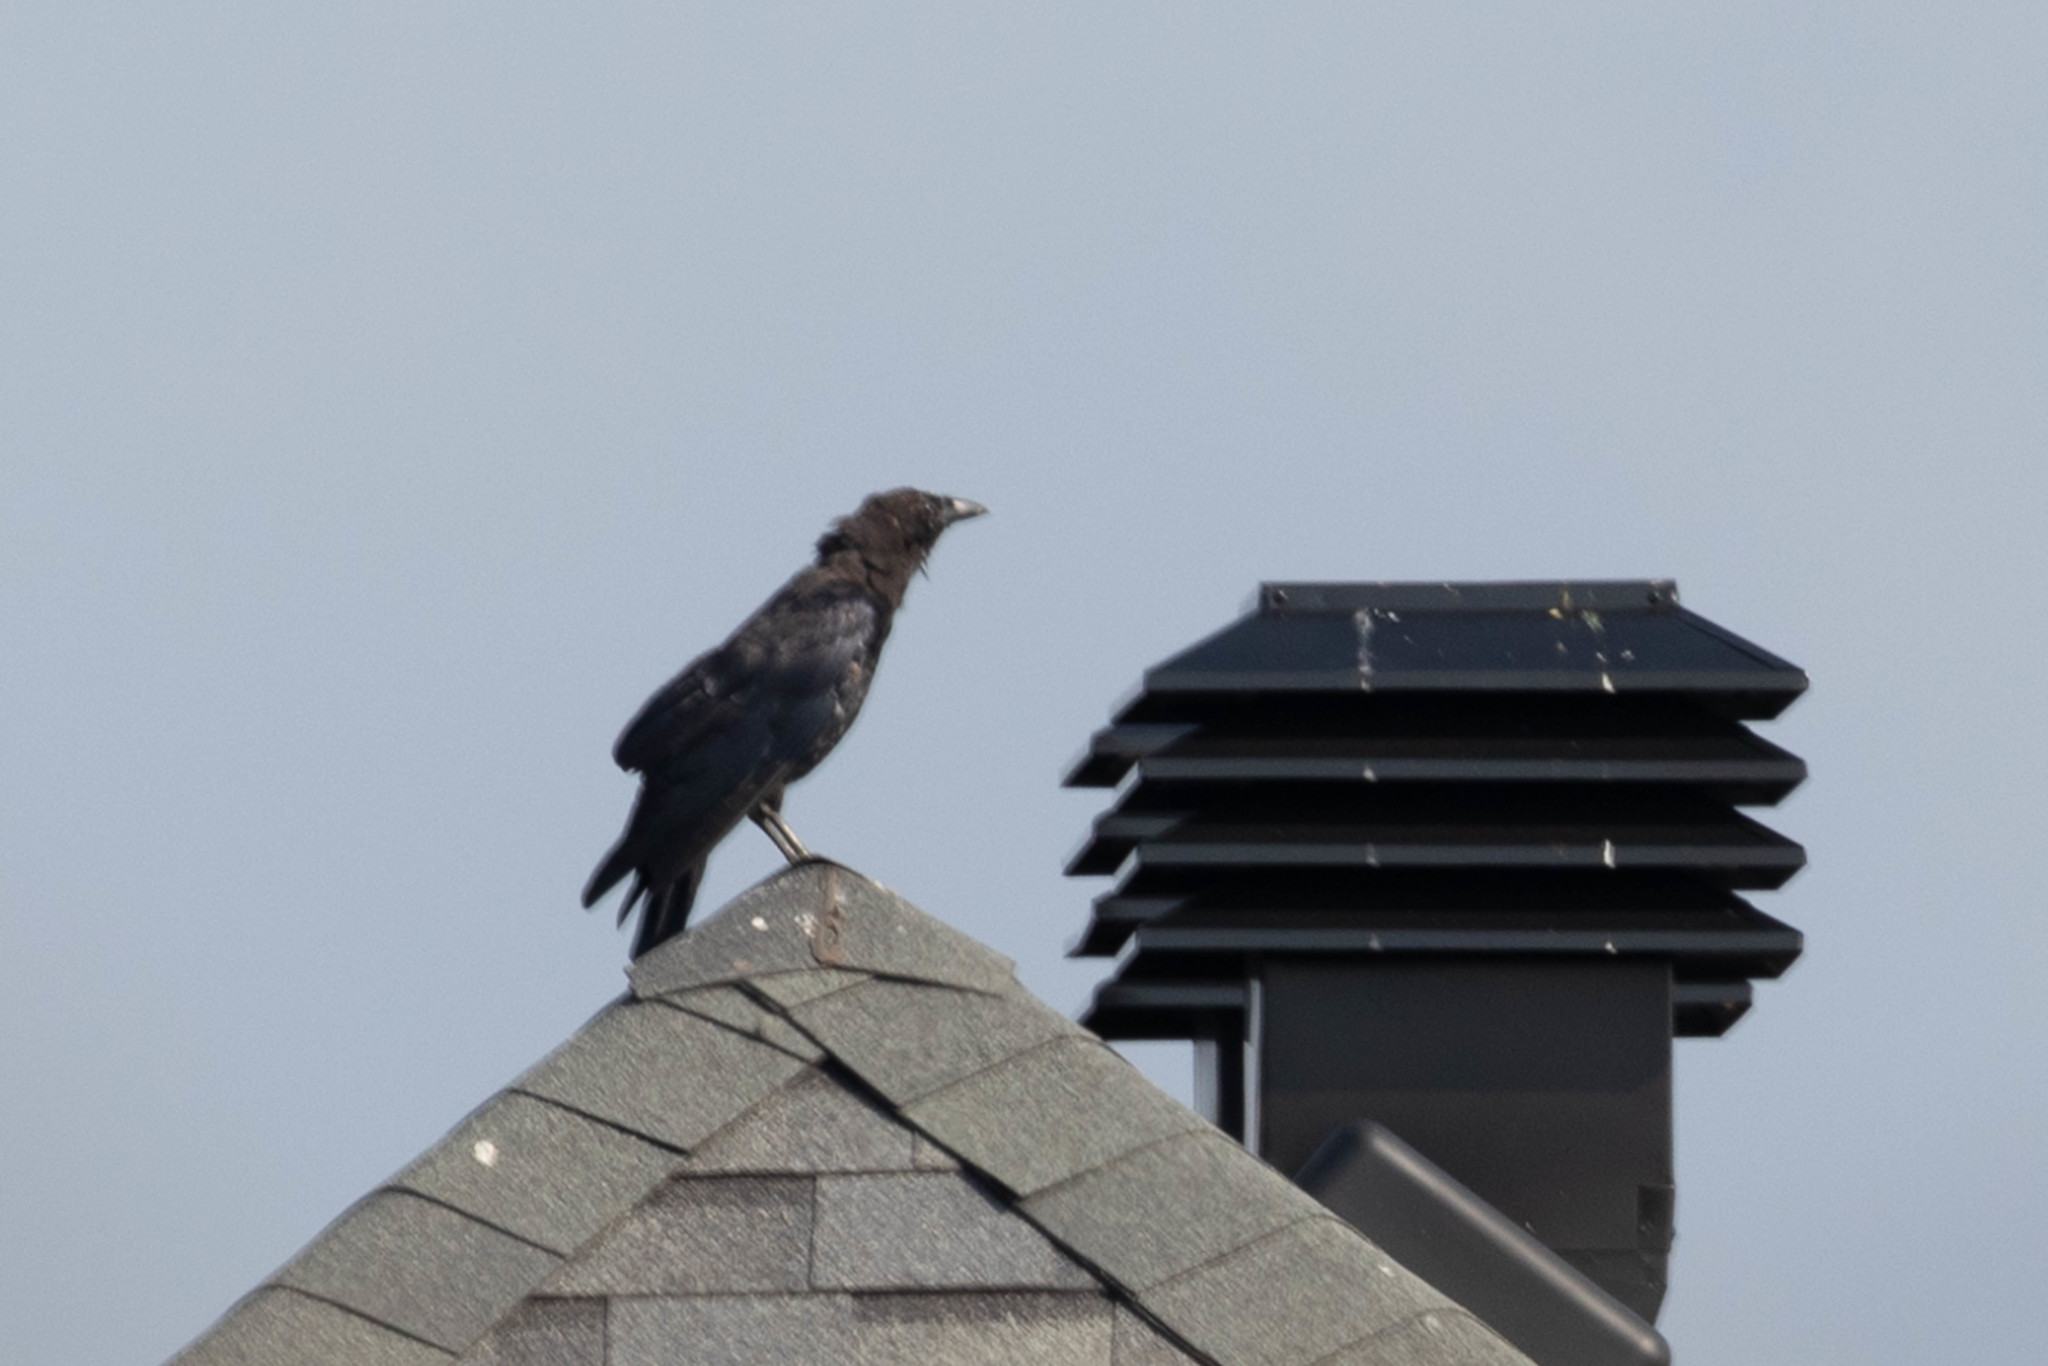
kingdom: Animalia
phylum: Chordata
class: Aves
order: Passeriformes
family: Corvidae
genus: Corvus
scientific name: Corvus brachyrhynchos
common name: American crow
